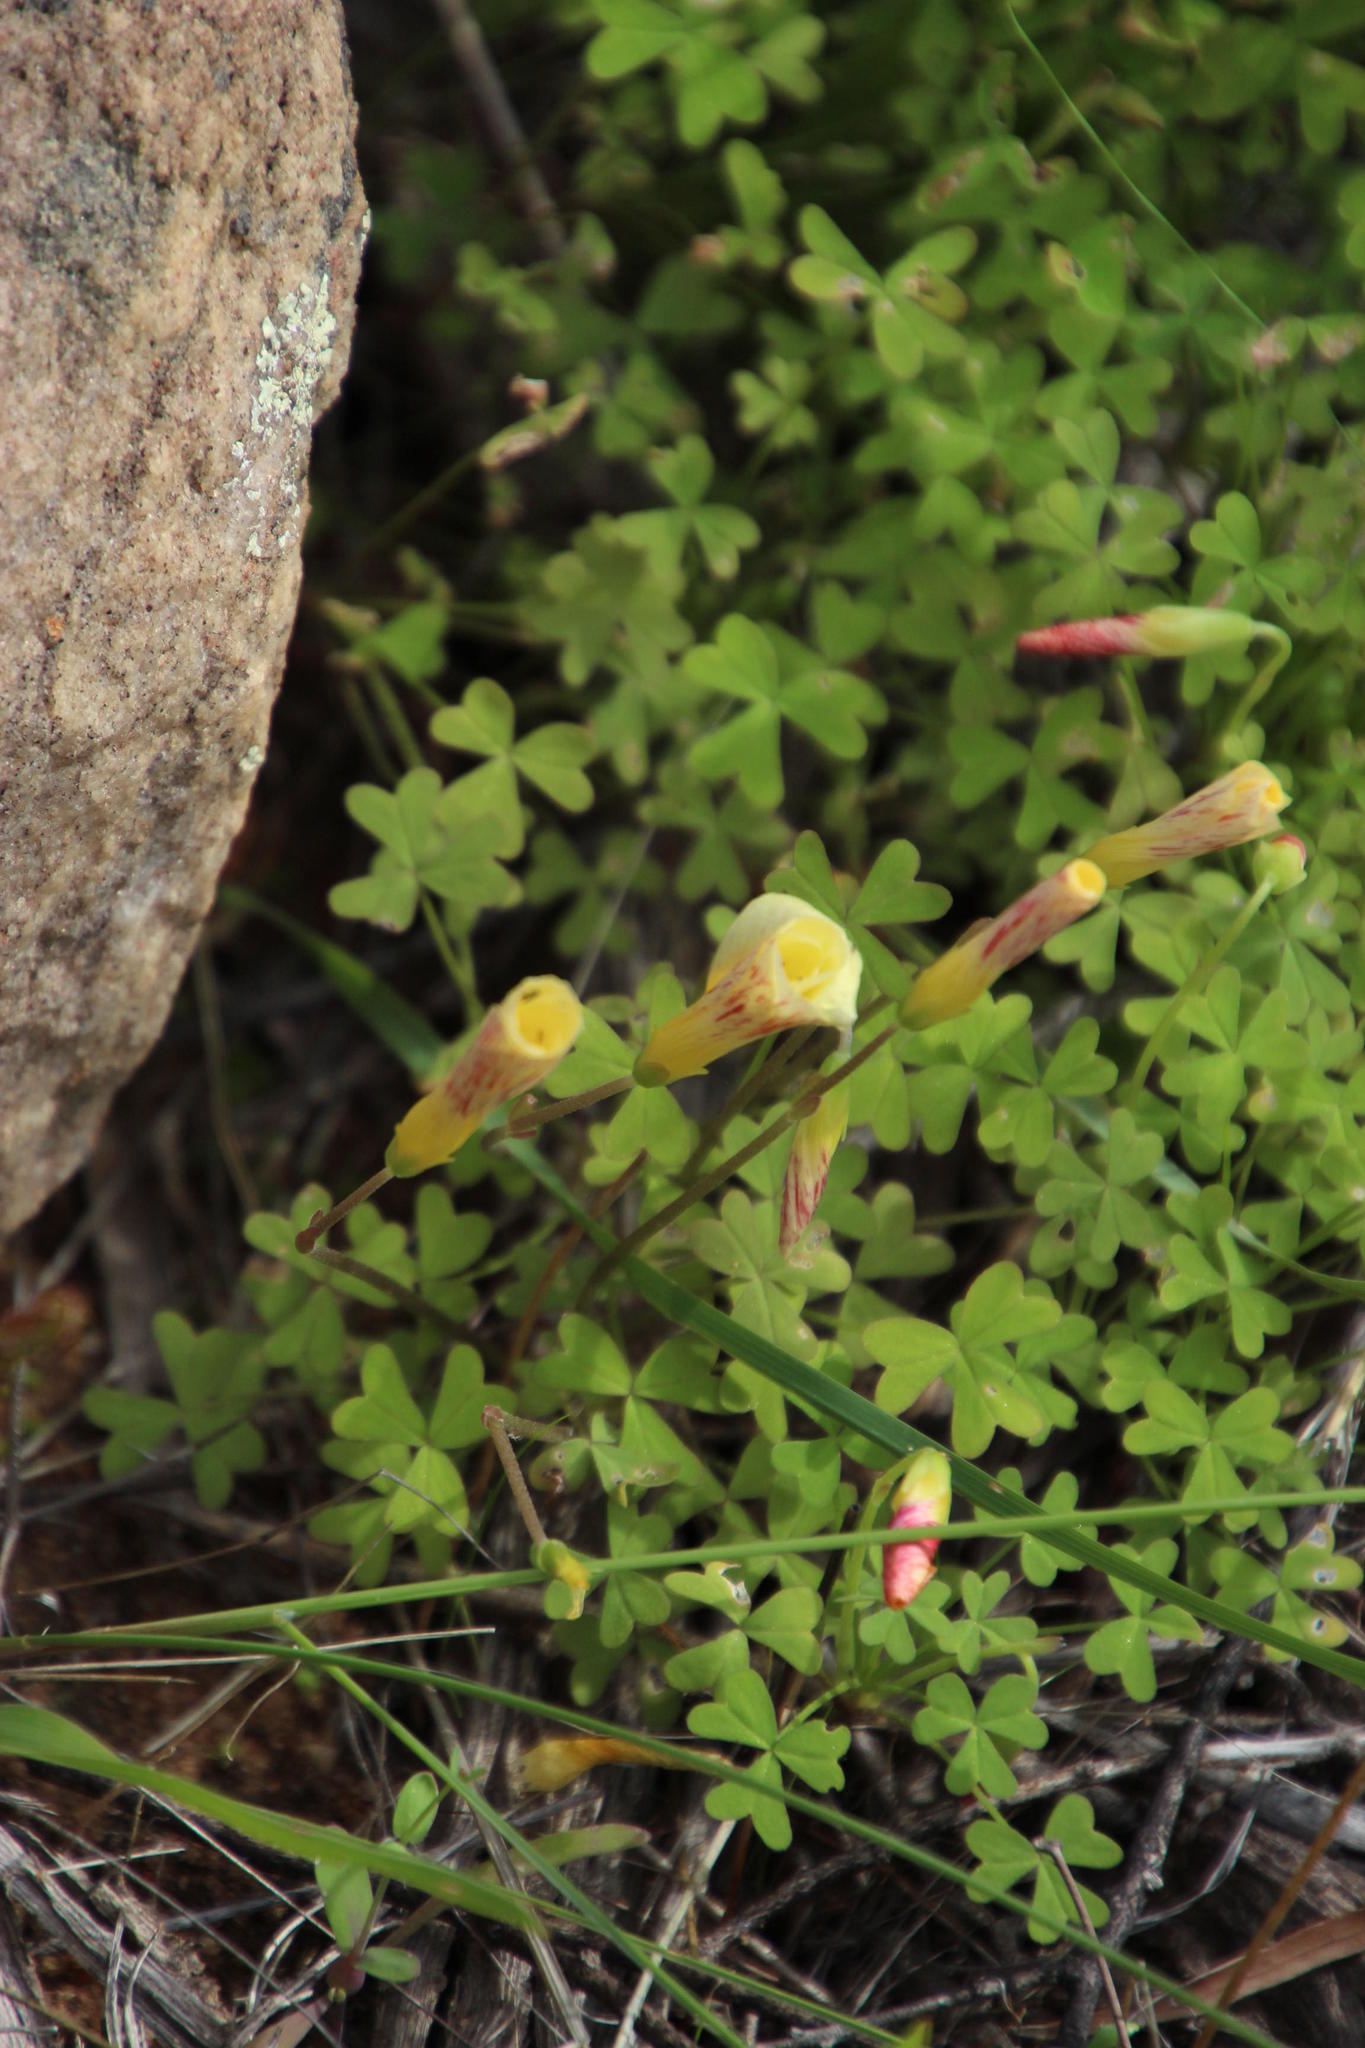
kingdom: Plantae
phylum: Tracheophyta
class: Magnoliopsida
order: Oxalidales
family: Oxalidaceae
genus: Oxalis
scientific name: Oxalis obtusa
